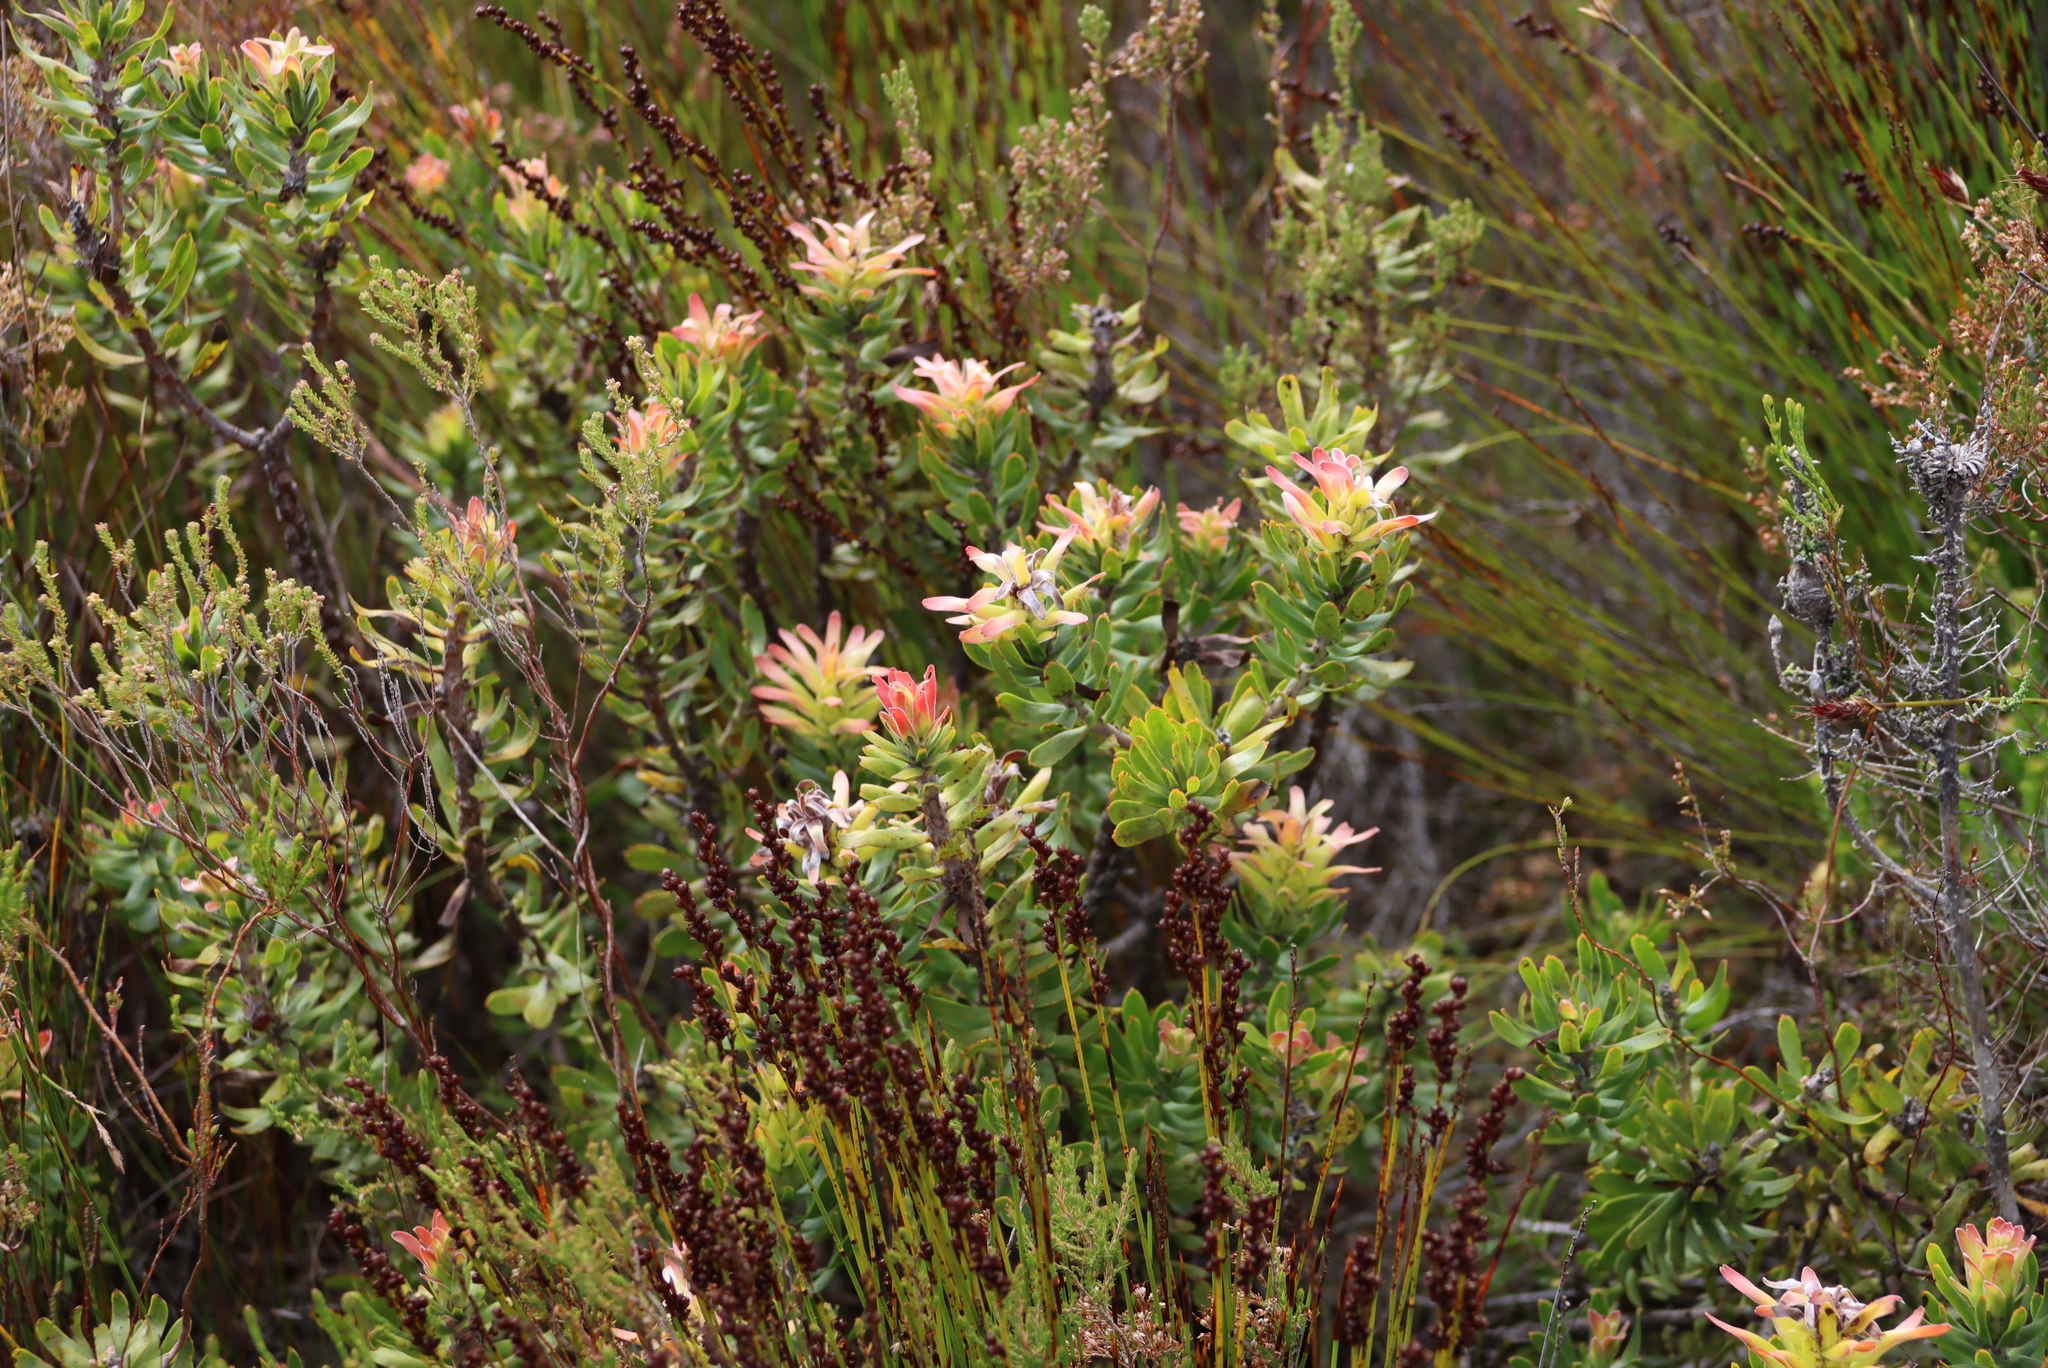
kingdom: Plantae
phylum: Tracheophyta
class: Magnoliopsida
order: Proteales
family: Proteaceae
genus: Mimetes
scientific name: Mimetes cucullatus
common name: Common pagoda
